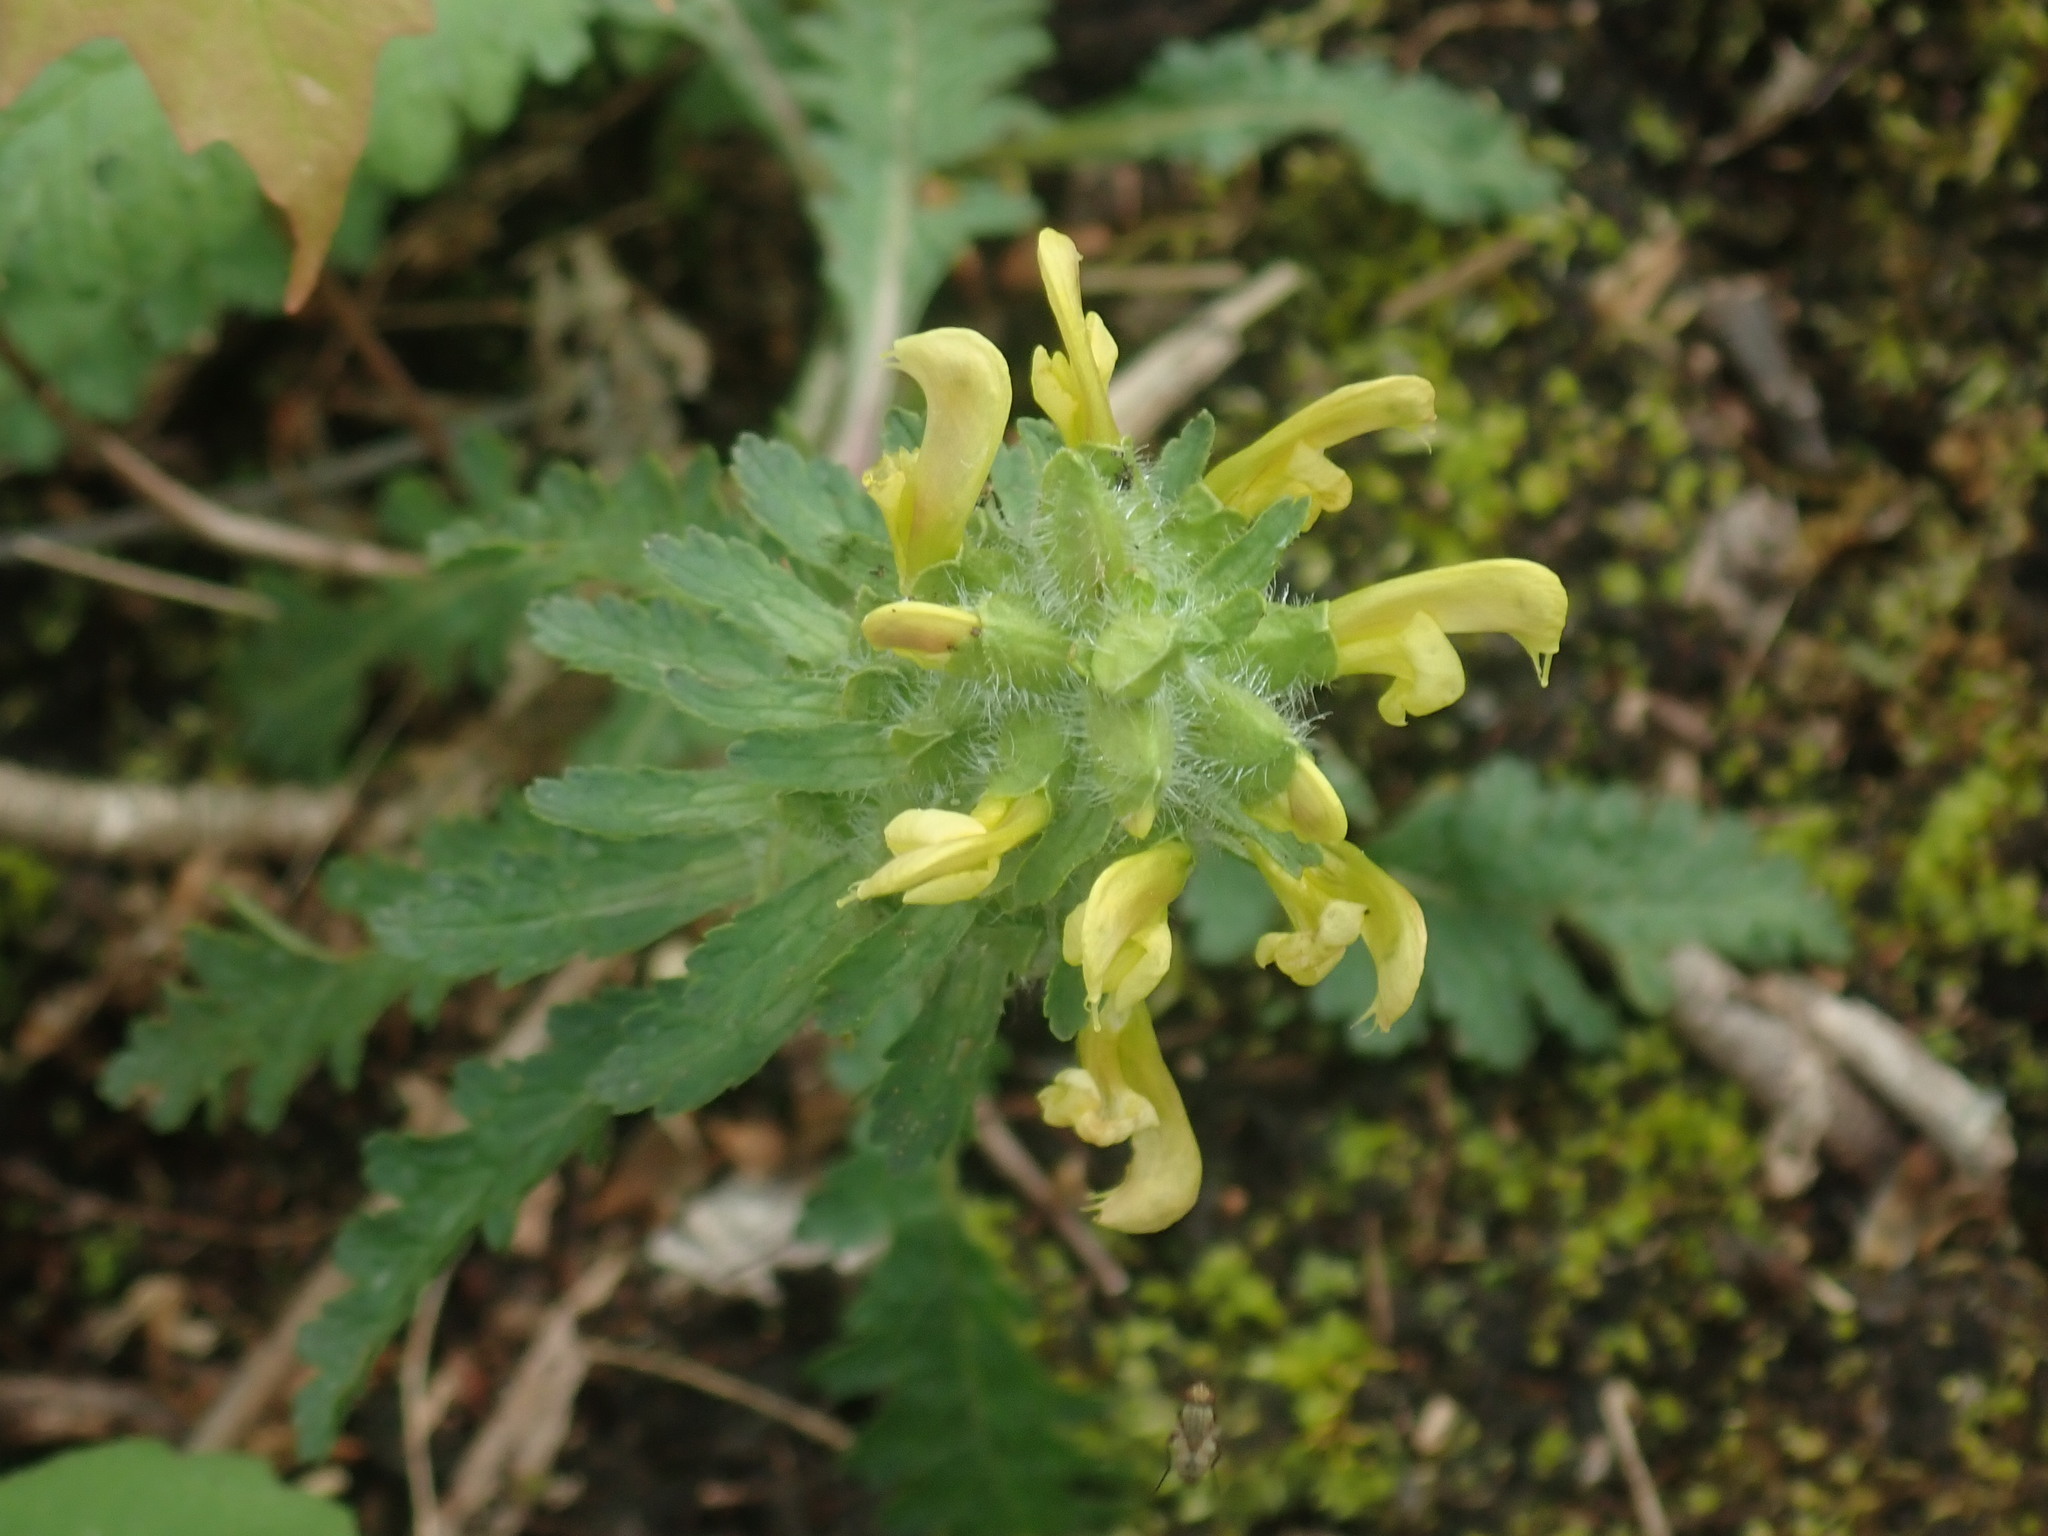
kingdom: Plantae
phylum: Tracheophyta
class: Magnoliopsida
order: Lamiales
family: Orobanchaceae
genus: Pedicularis
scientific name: Pedicularis canadensis
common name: Early lousewort
